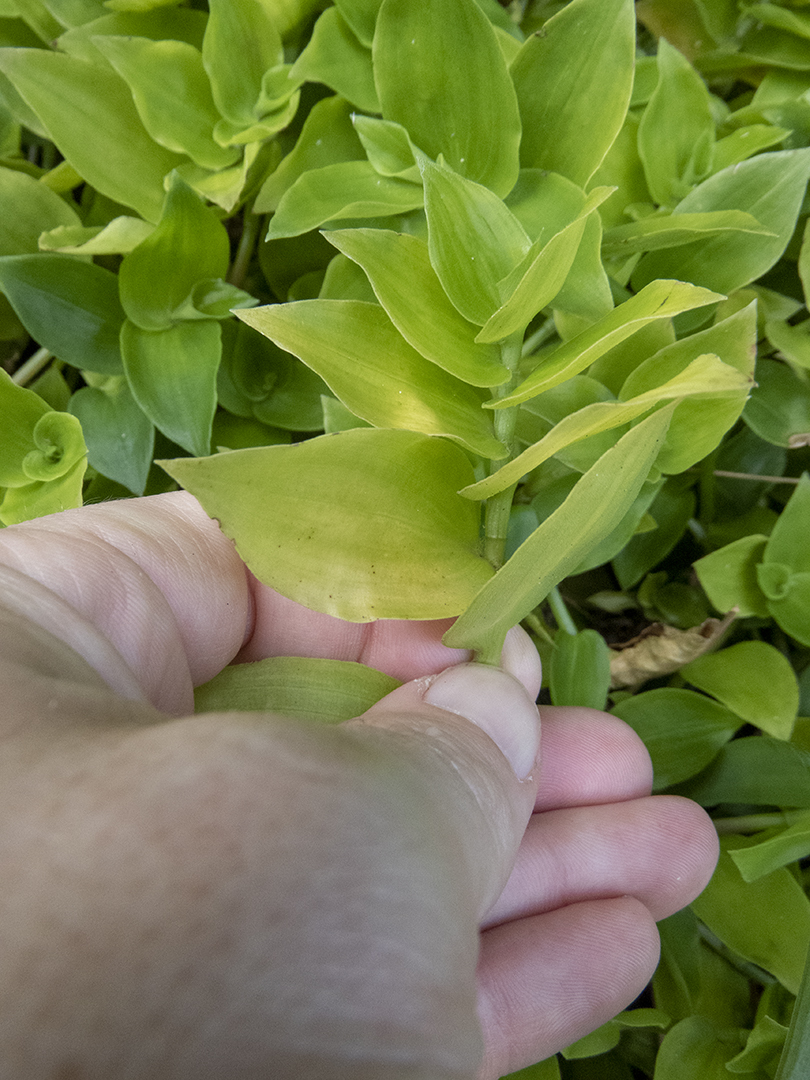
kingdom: Plantae
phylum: Tracheophyta
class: Liliopsida
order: Commelinales
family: Commelinaceae
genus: Tradescantia
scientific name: Tradescantia fluminensis
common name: Wandering-jew
